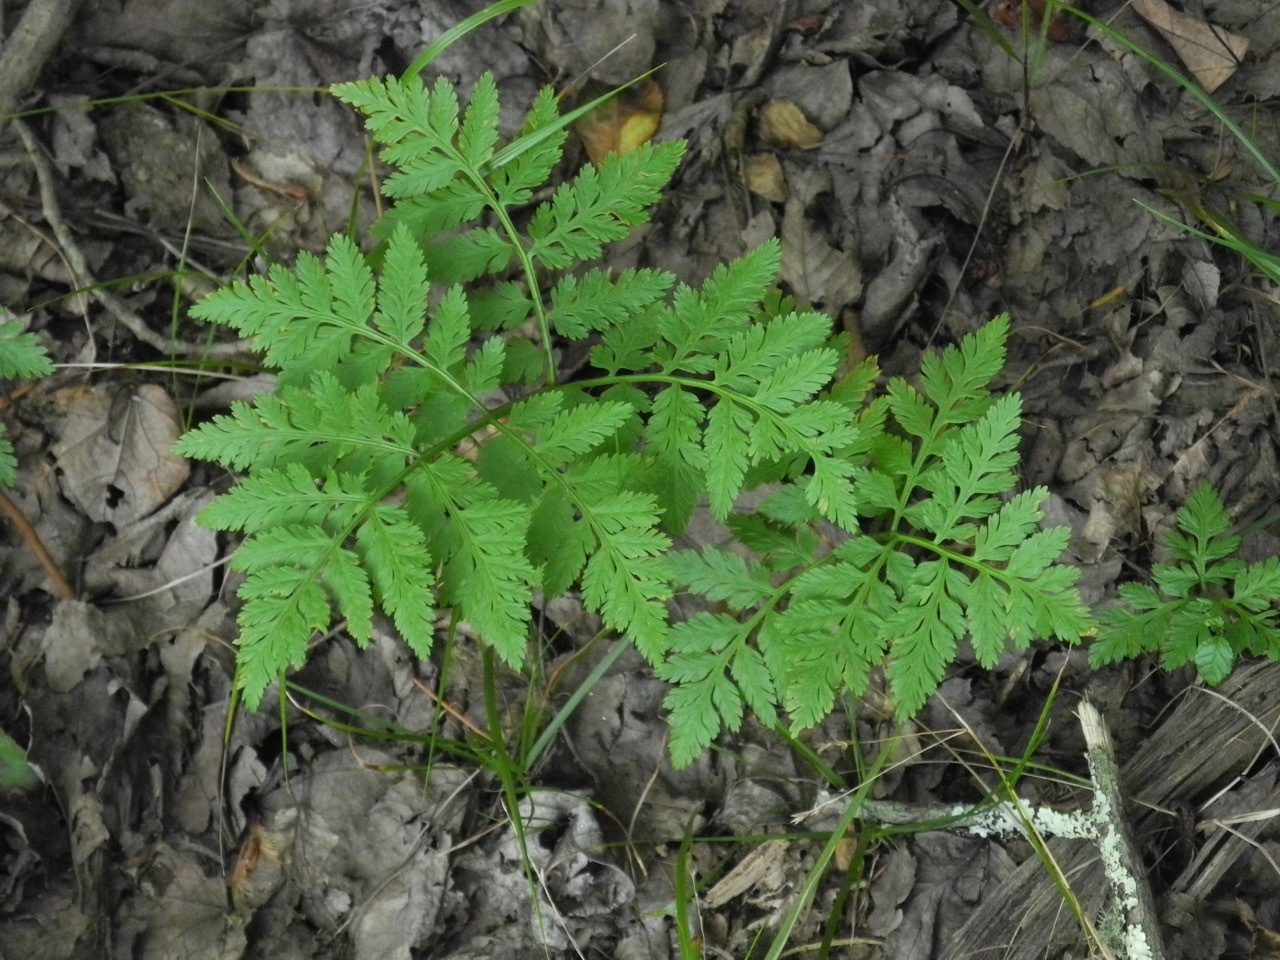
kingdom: Plantae
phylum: Tracheophyta
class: Polypodiopsida
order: Ophioglossales
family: Ophioglossaceae
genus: Botrypus
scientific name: Botrypus virginianus
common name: Common grapefern
